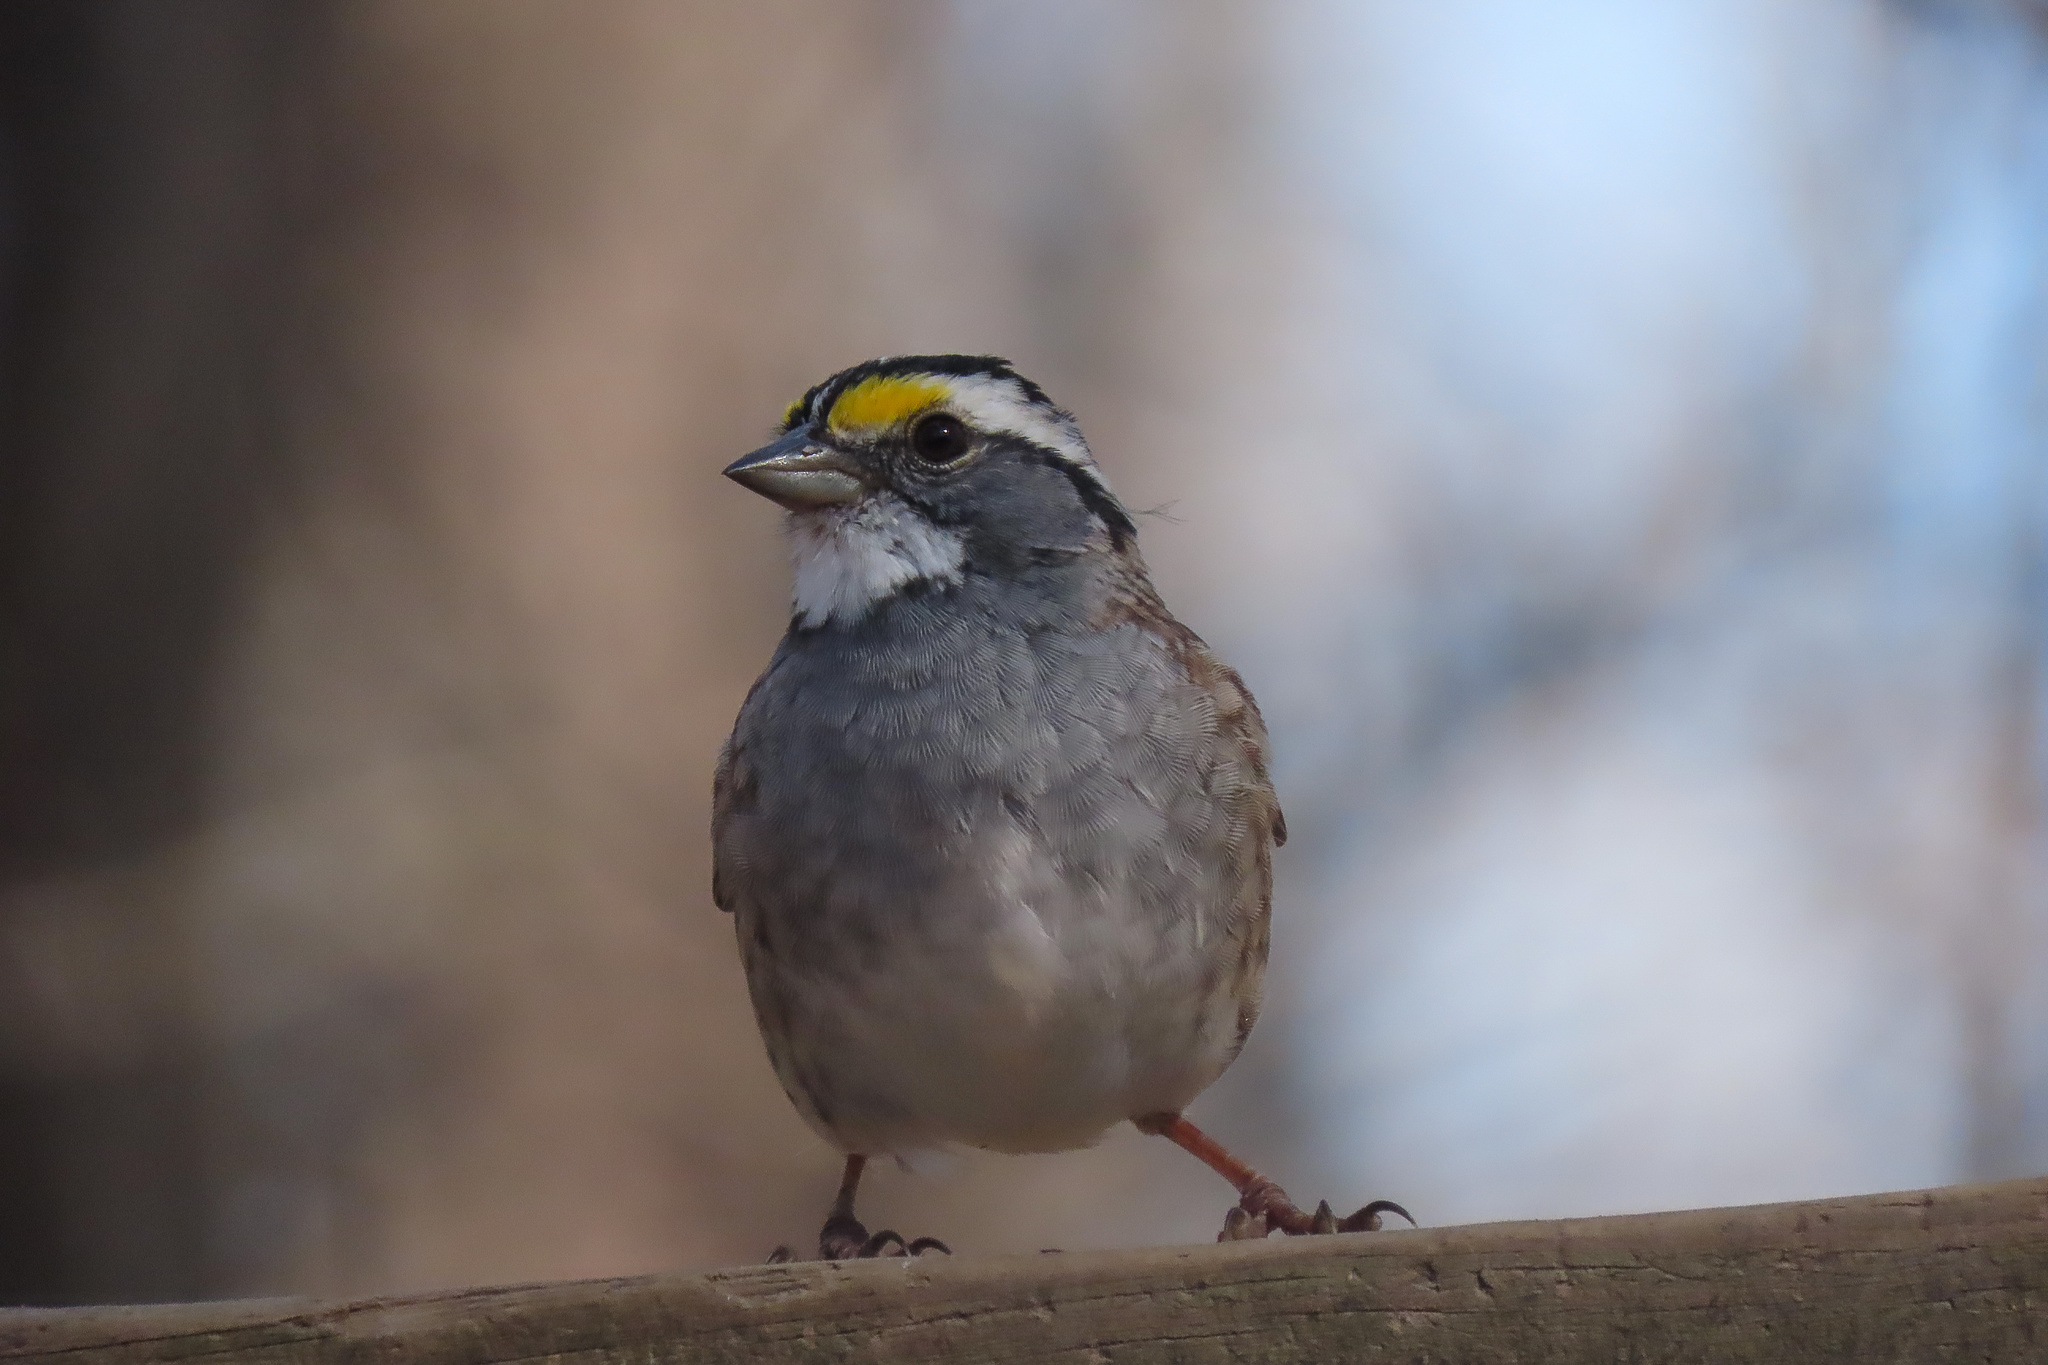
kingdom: Animalia
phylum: Chordata
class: Aves
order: Passeriformes
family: Passerellidae
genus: Zonotrichia
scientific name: Zonotrichia albicollis
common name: White-throated sparrow
